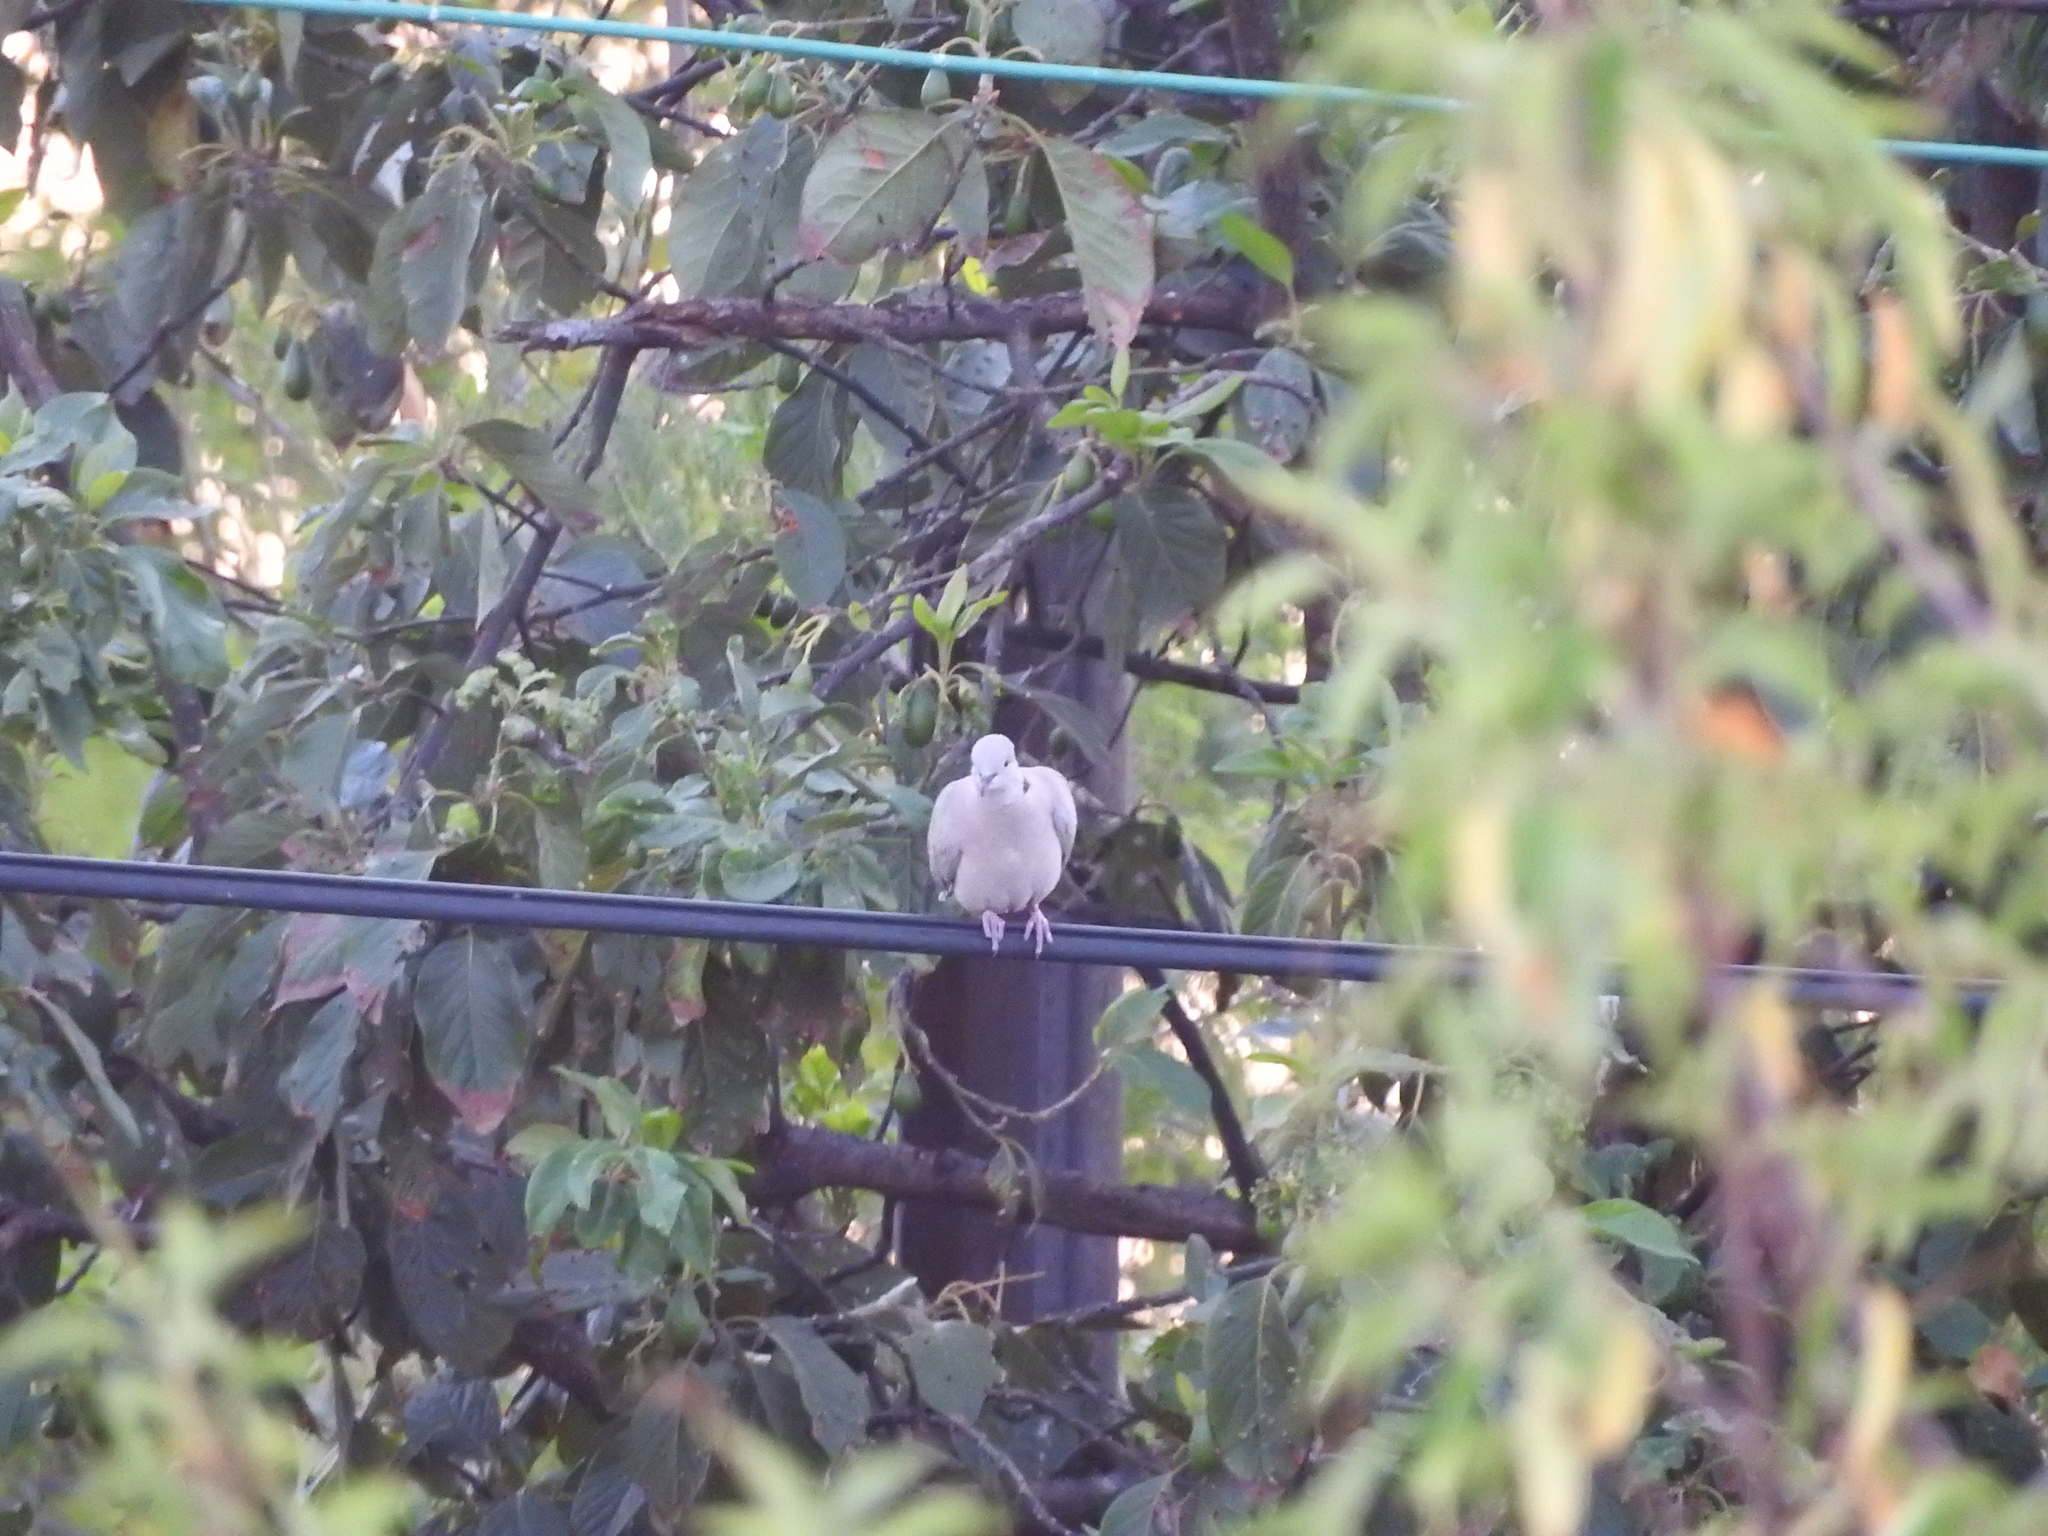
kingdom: Animalia
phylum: Chordata
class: Aves
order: Columbiformes
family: Columbidae
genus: Streptopelia
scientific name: Streptopelia decaocto
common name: Eurasian collared dove
